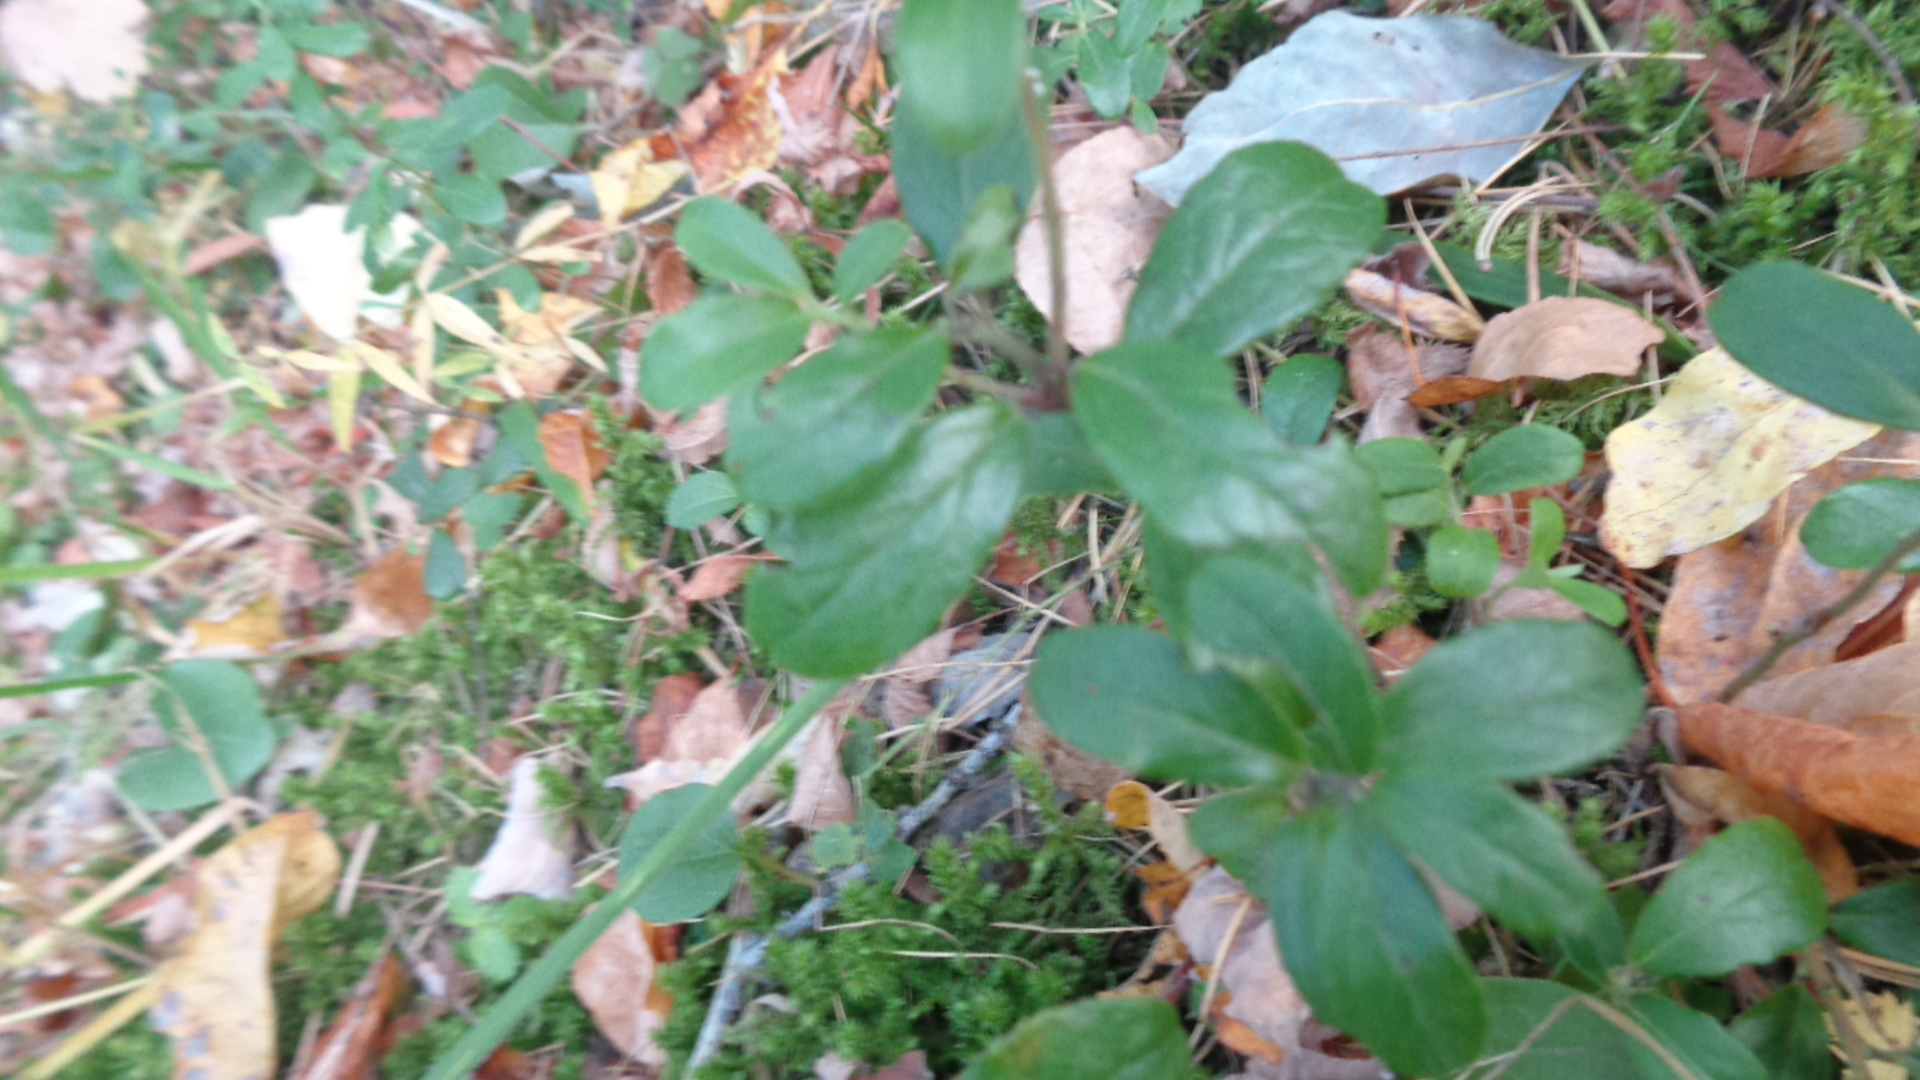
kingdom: Plantae
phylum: Tracheophyta
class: Magnoliopsida
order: Ericales
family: Ericaceae
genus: Vaccinium
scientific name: Vaccinium vitis-idaea
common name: Cowberry
